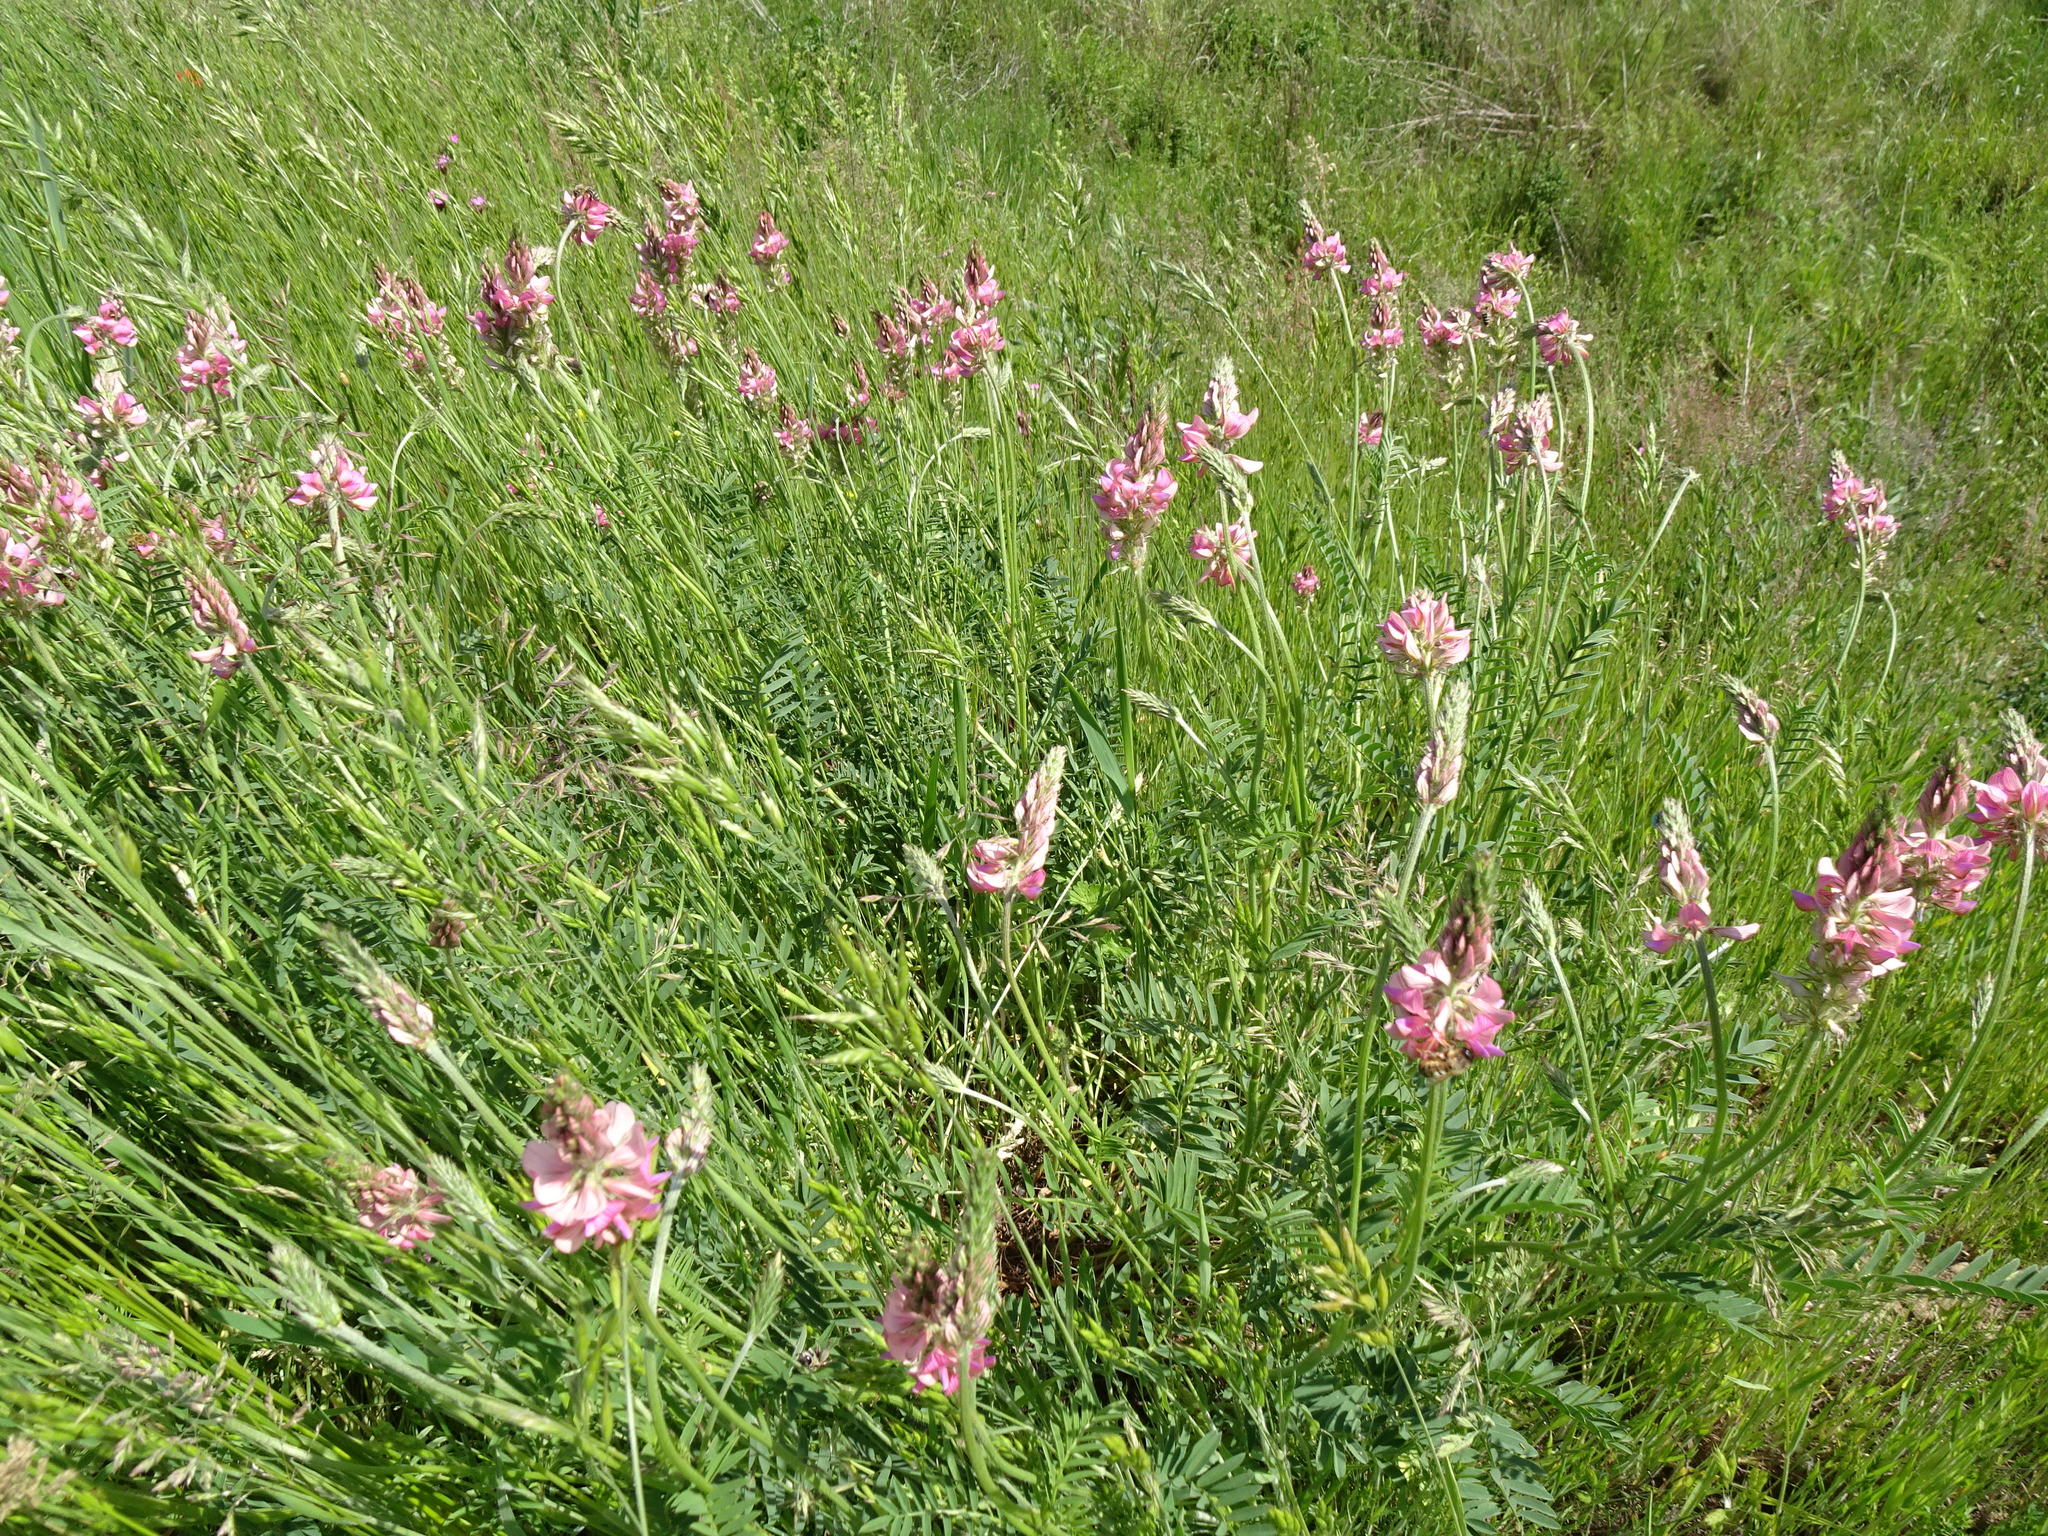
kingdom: Plantae
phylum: Tracheophyta
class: Magnoliopsida
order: Fabales
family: Fabaceae
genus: Onobrychis
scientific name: Onobrychis viciifolia
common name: Sainfoin
